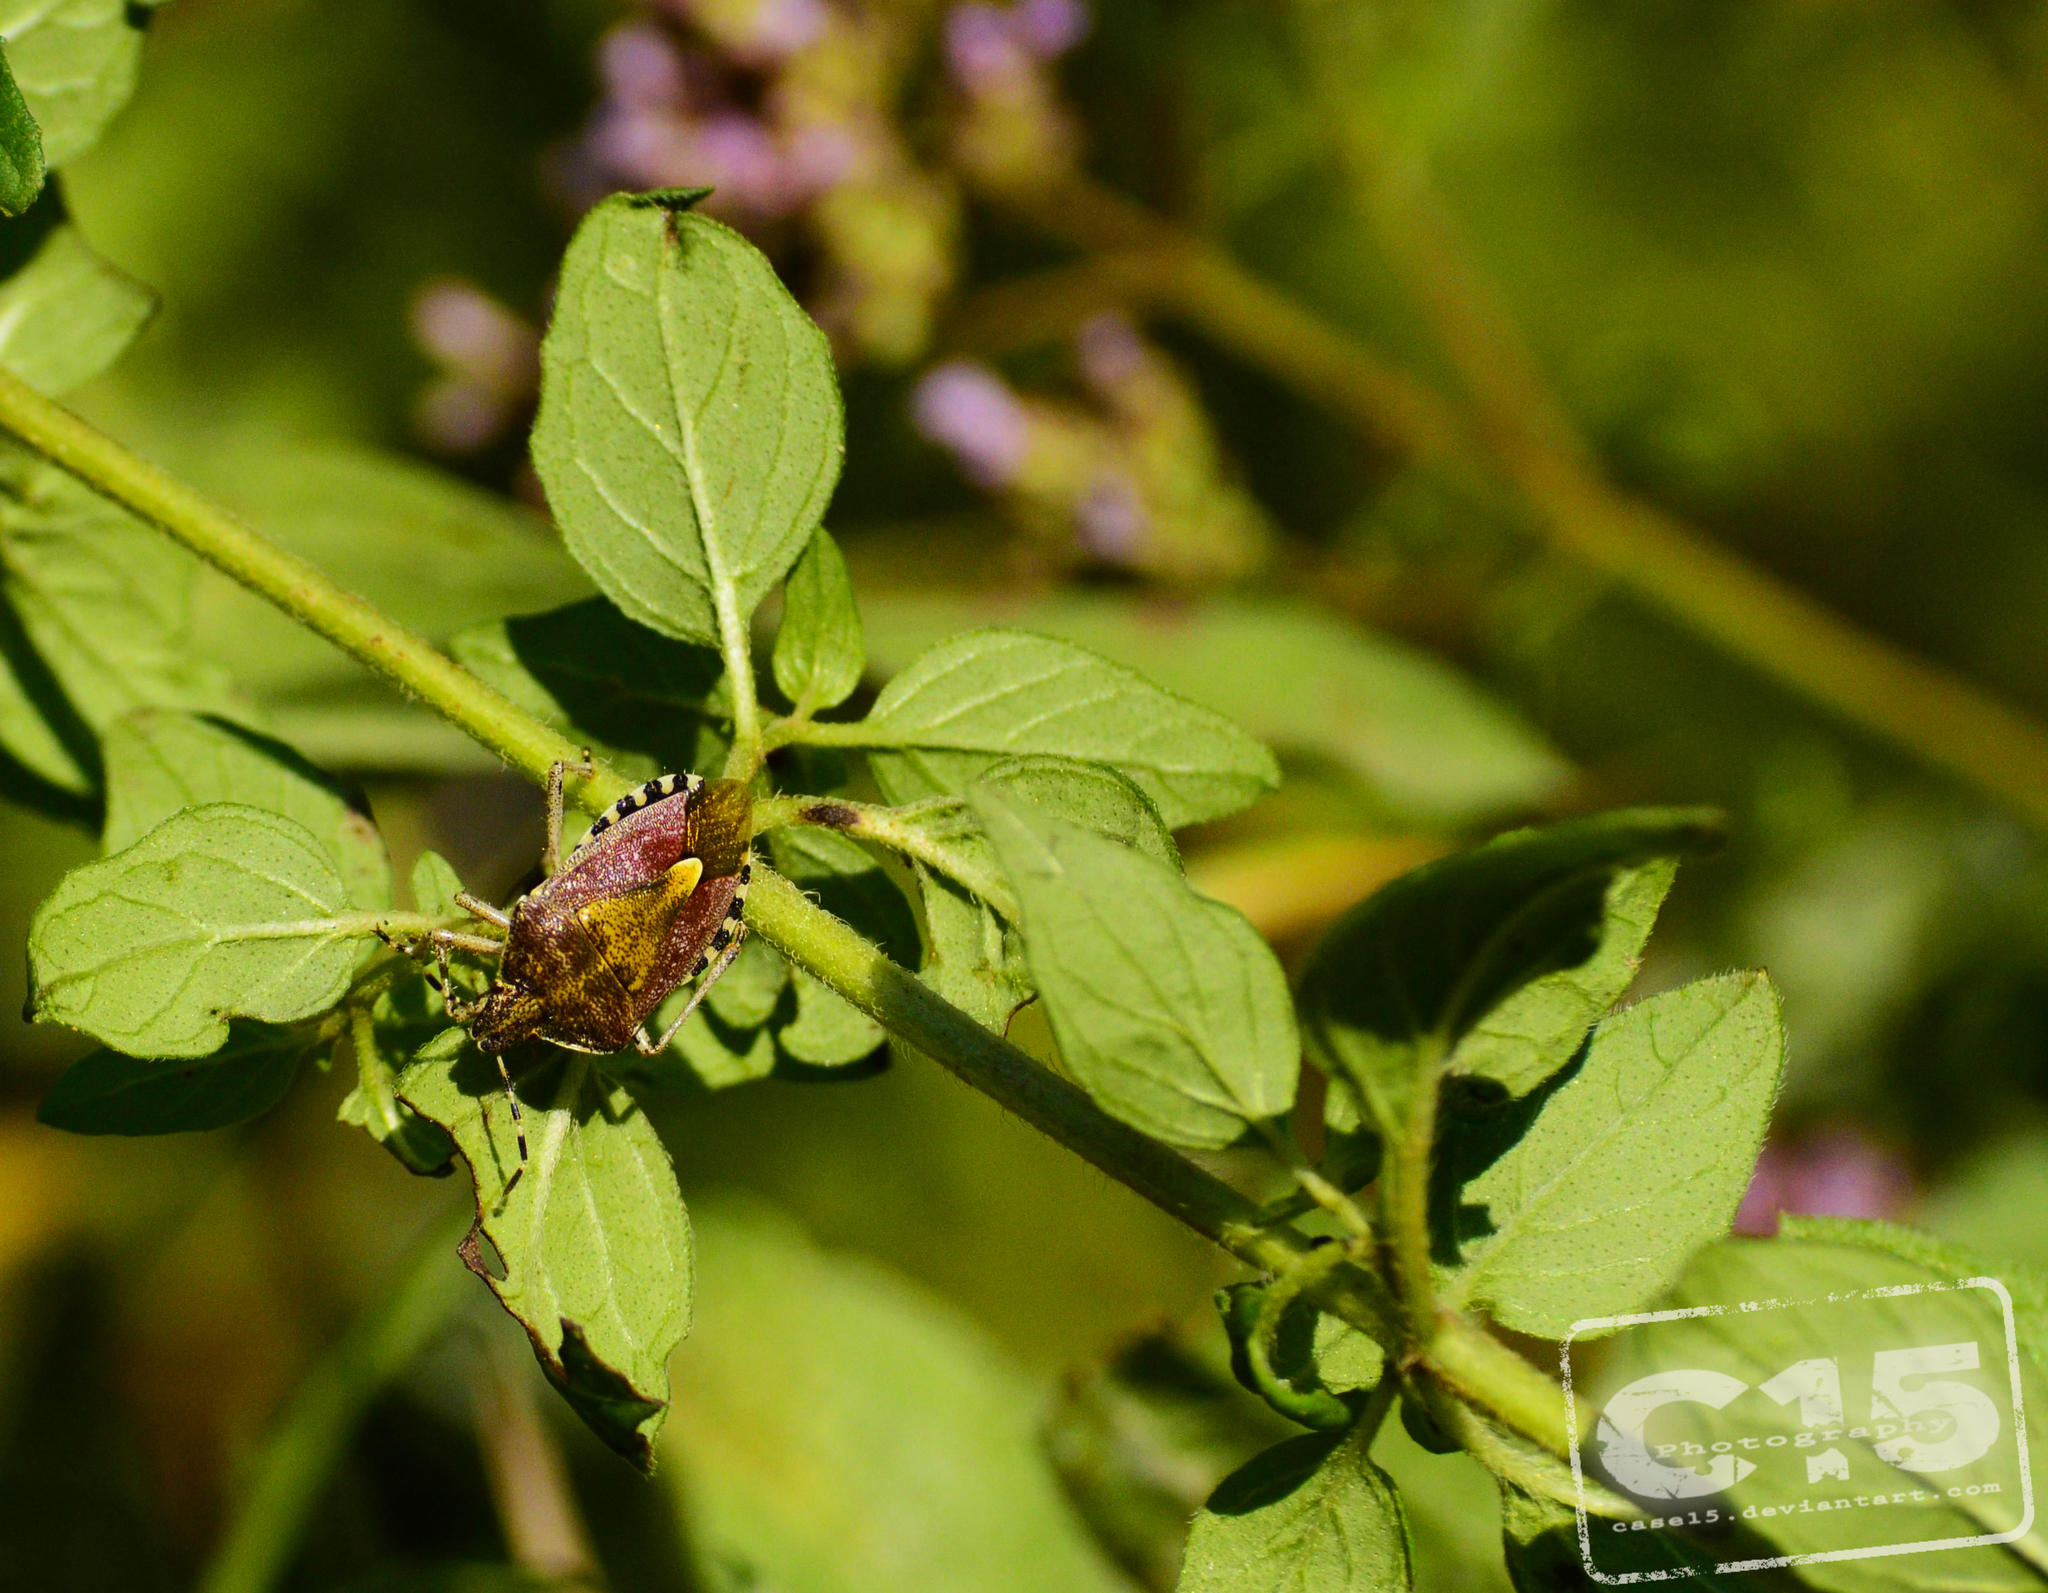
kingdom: Animalia
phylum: Arthropoda
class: Insecta
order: Hemiptera
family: Pentatomidae
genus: Dolycoris
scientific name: Dolycoris baccarum
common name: Sloe bug
